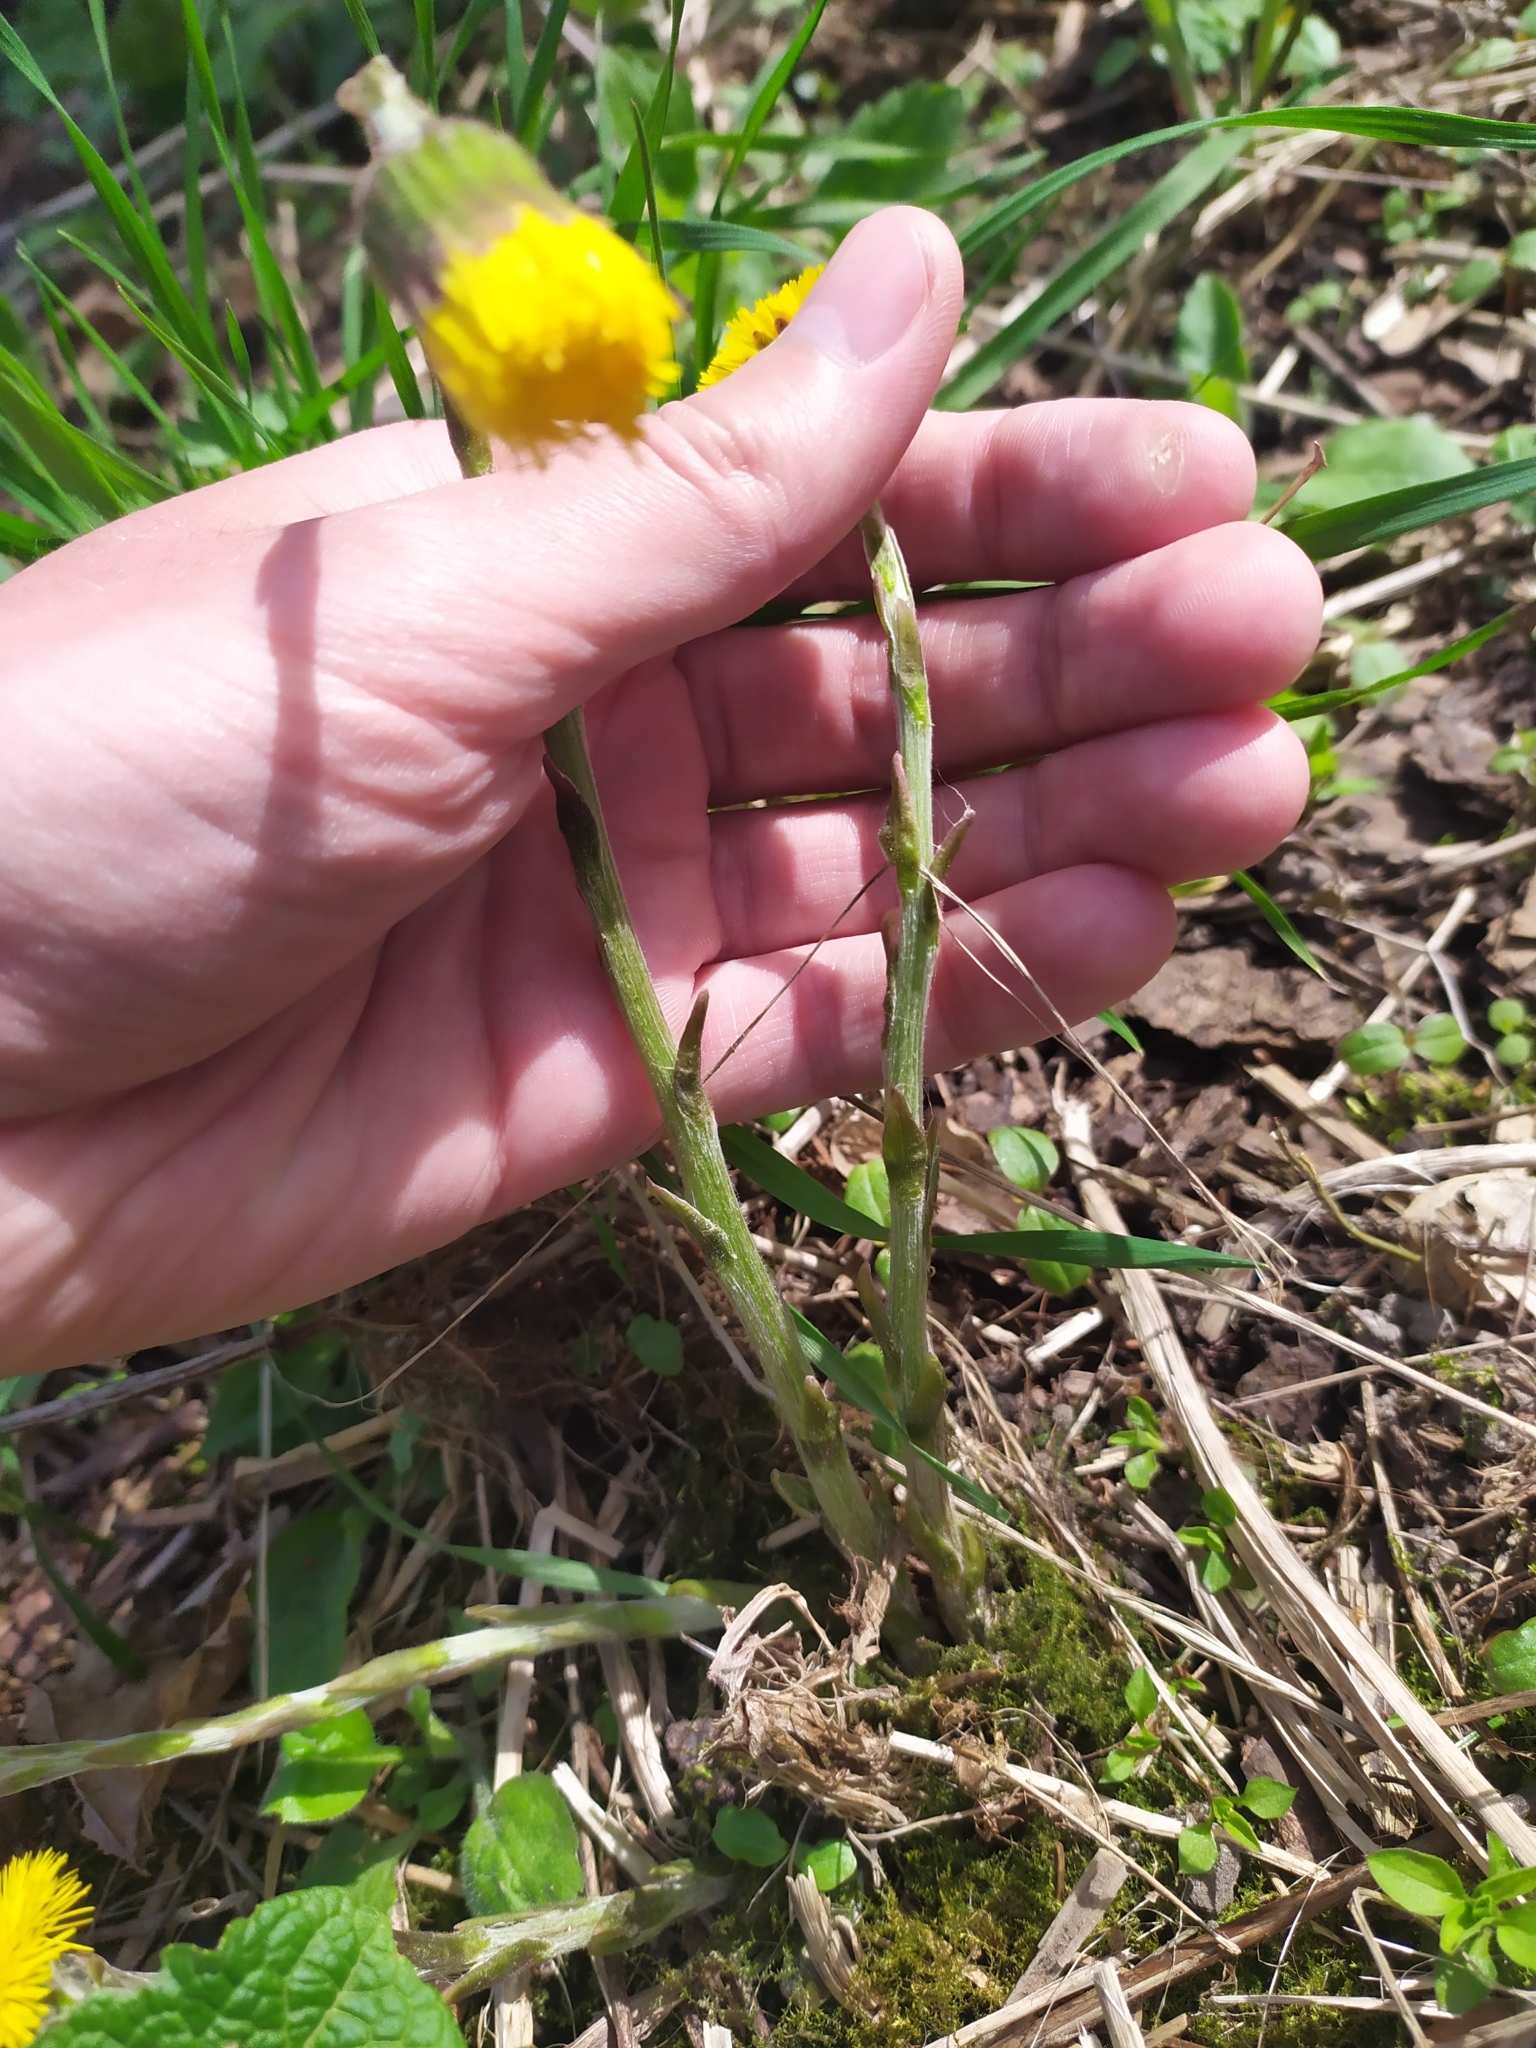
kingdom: Plantae
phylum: Tracheophyta
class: Magnoliopsida
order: Asterales
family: Asteraceae
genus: Tussilago
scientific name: Tussilago farfara
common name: Coltsfoot
